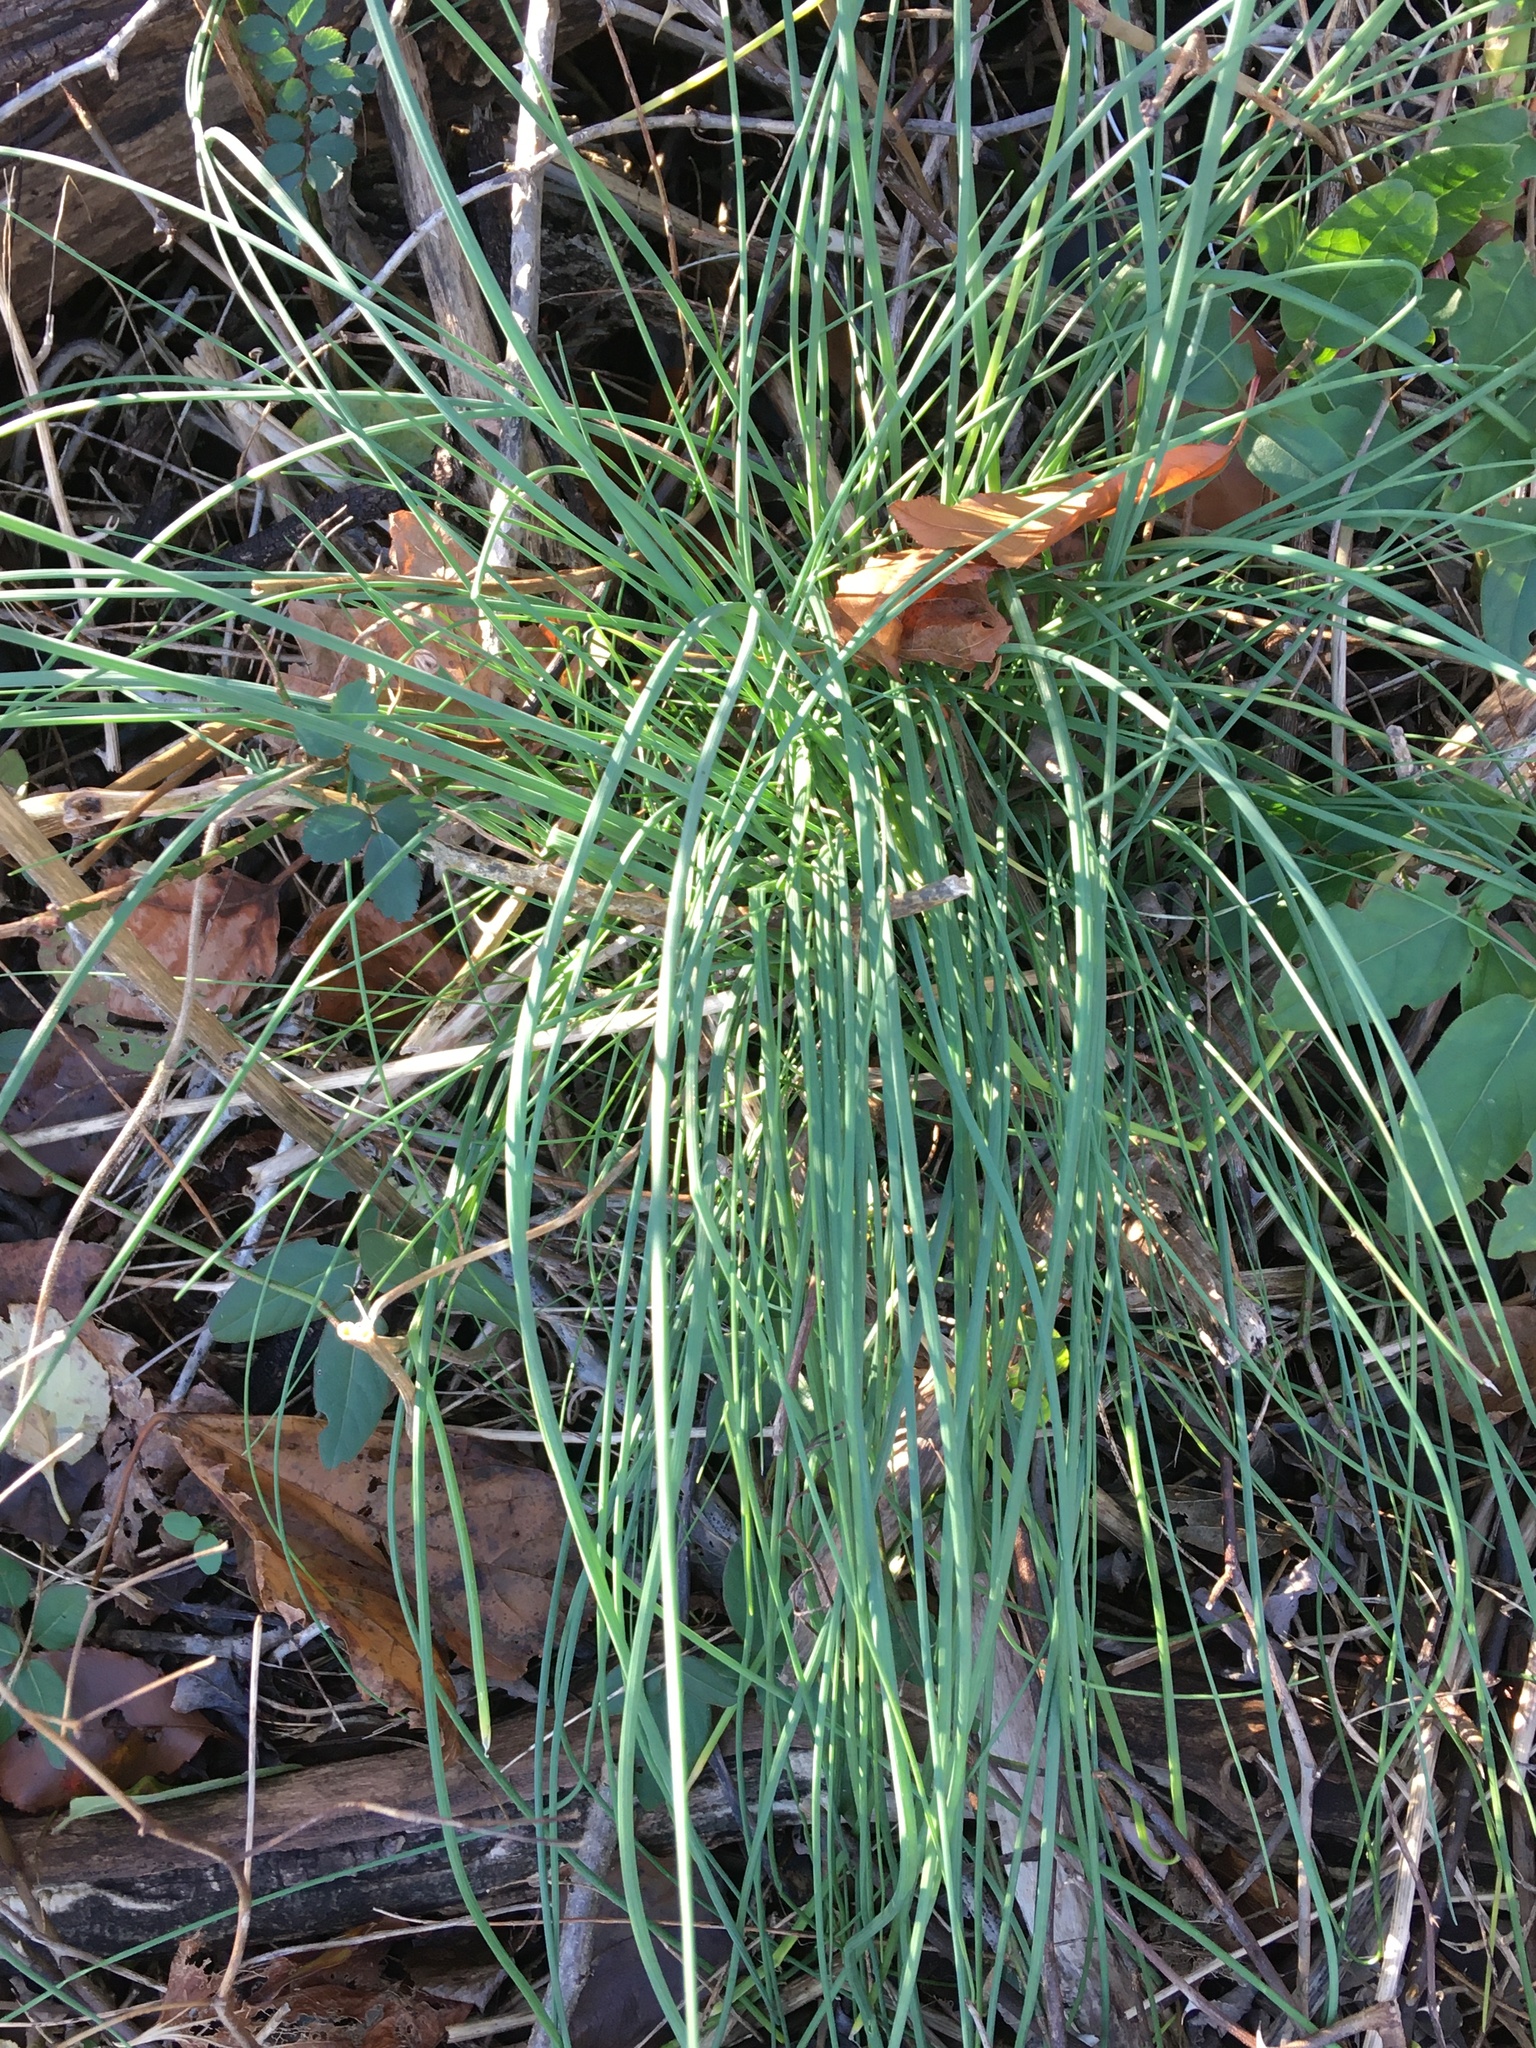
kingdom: Plantae
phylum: Tracheophyta
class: Liliopsida
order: Asparagales
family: Amaryllidaceae
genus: Allium
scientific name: Allium vineale
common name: Crow garlic
